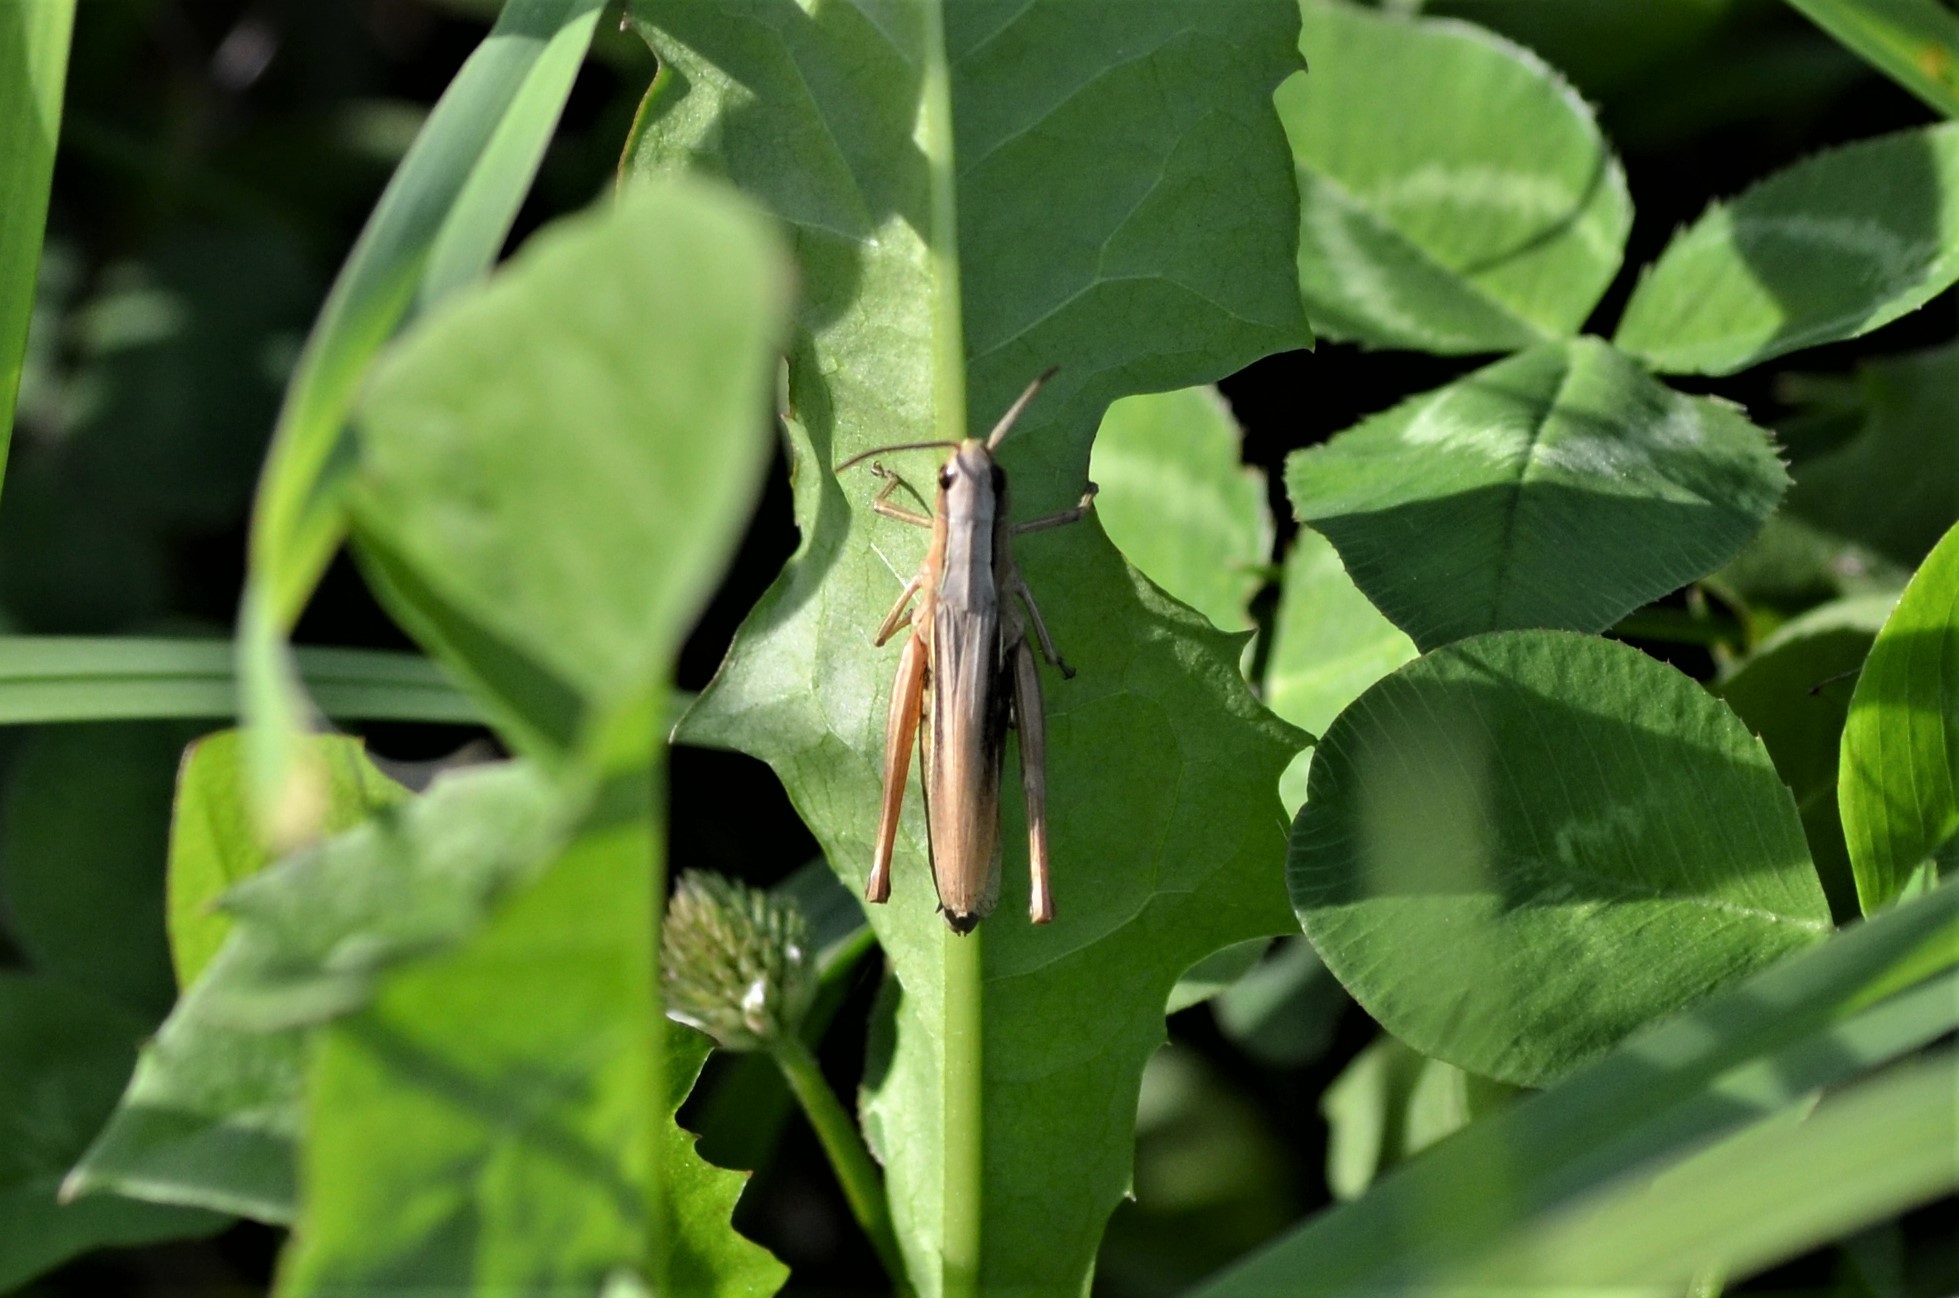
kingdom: Animalia
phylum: Arthropoda
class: Insecta
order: Orthoptera
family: Acrididae
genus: Chorthippus
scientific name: Chorthippus albomarginatus
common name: Lesser marsh grasshopper
